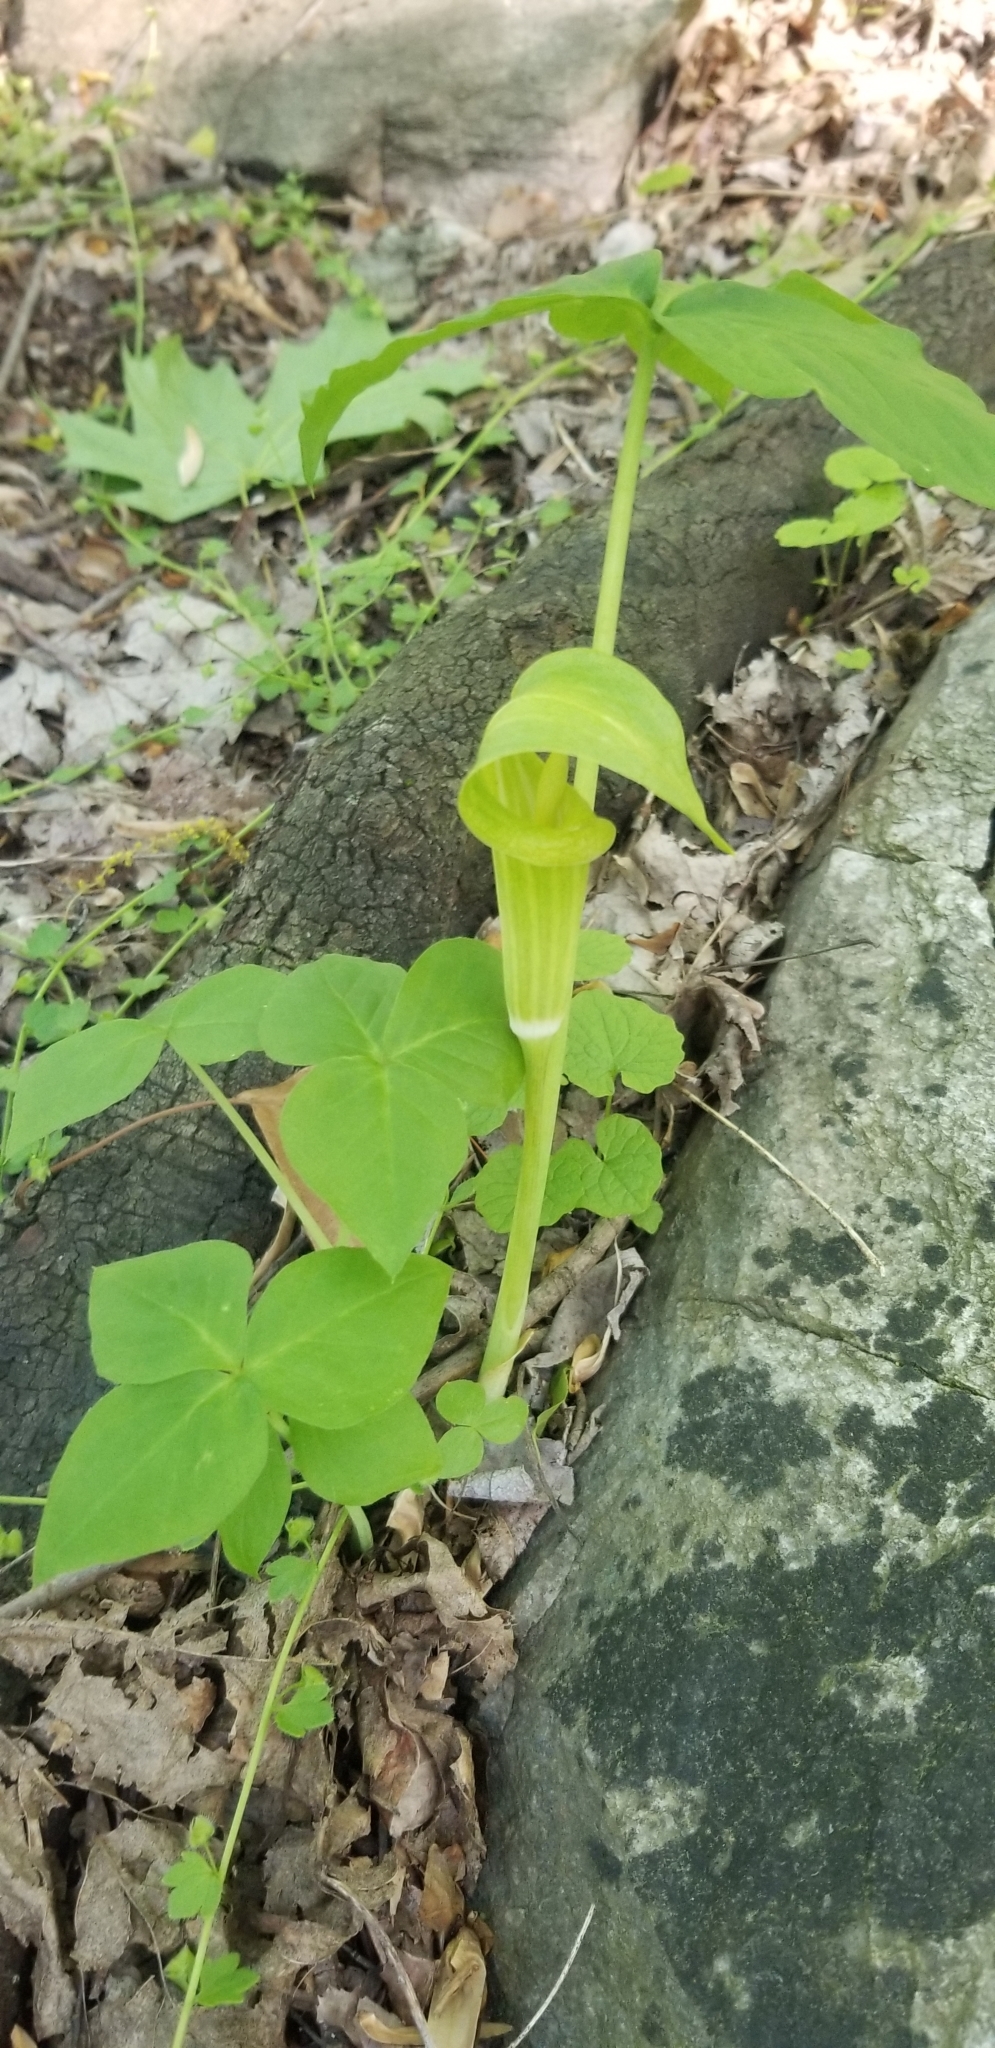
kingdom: Plantae
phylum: Tracheophyta
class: Liliopsida
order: Alismatales
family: Araceae
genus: Arisaema
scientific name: Arisaema triphyllum
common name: Jack-in-the-pulpit
